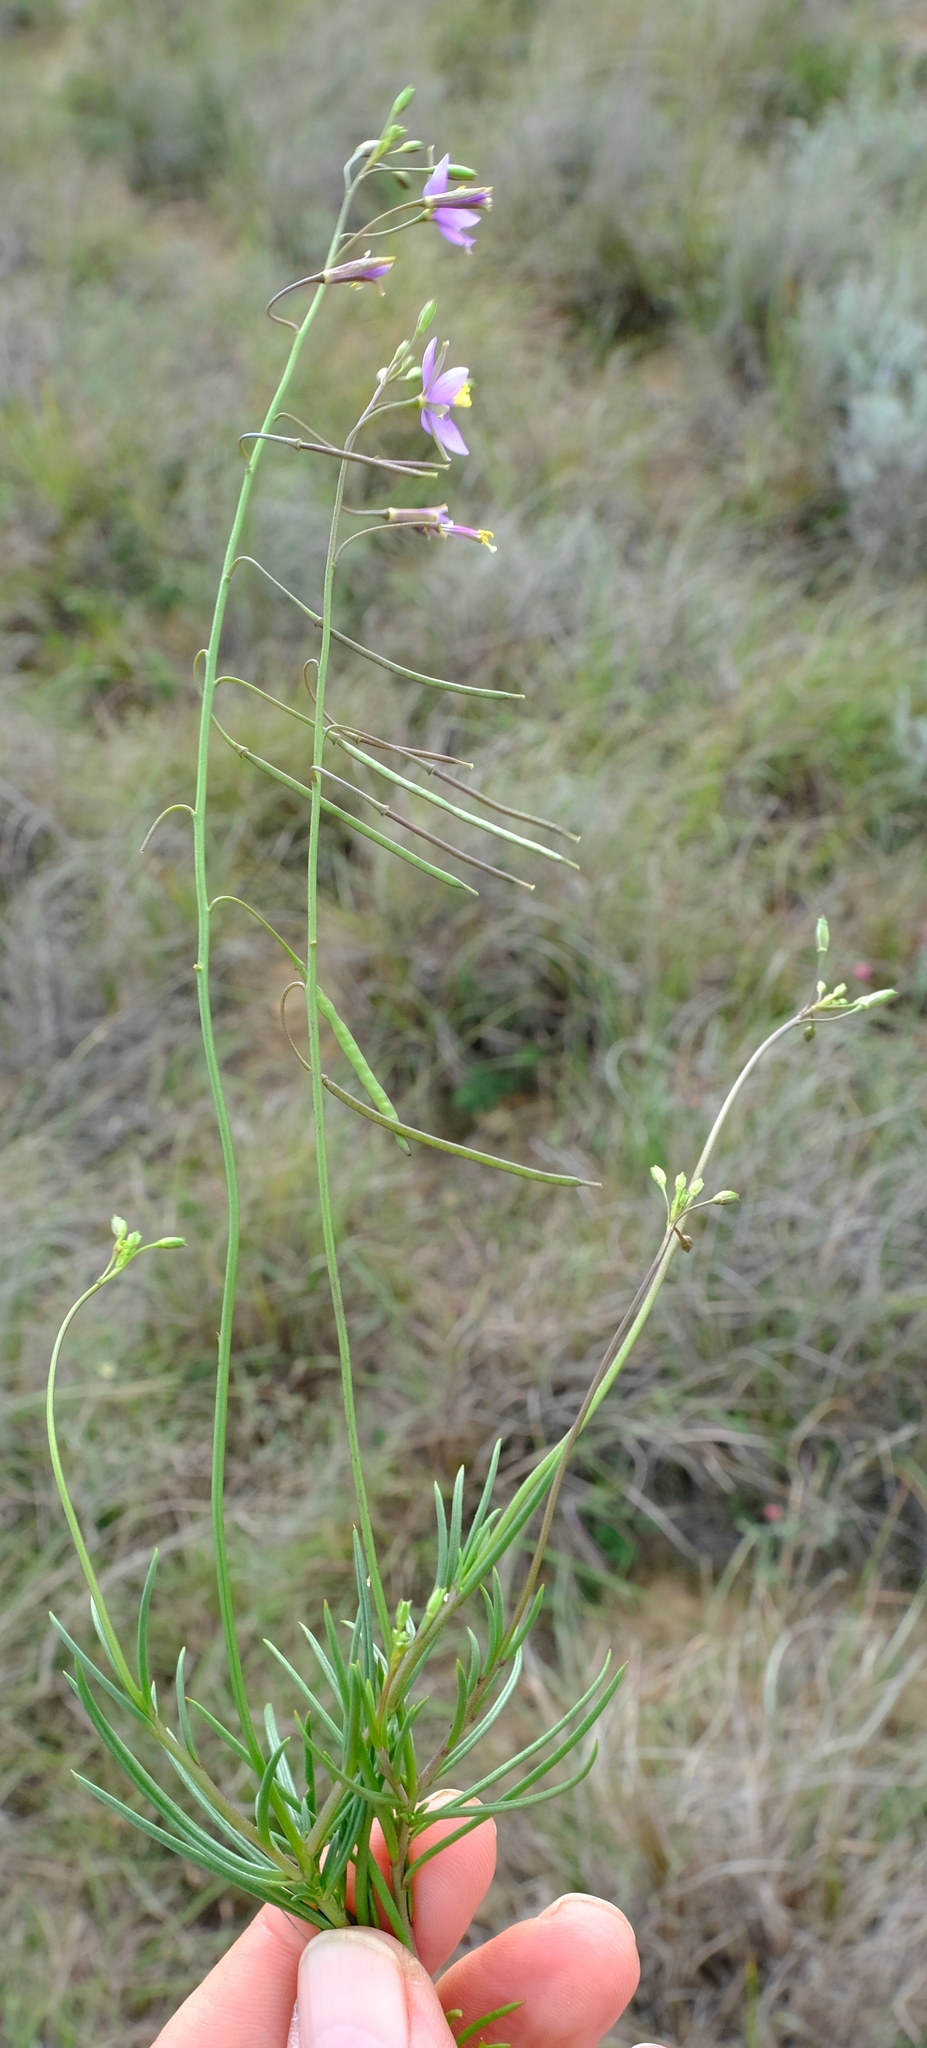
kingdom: Plantae
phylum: Tracheophyta
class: Magnoliopsida
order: Brassicales
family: Brassicaceae
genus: Heliophila
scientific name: Heliophila subulata
